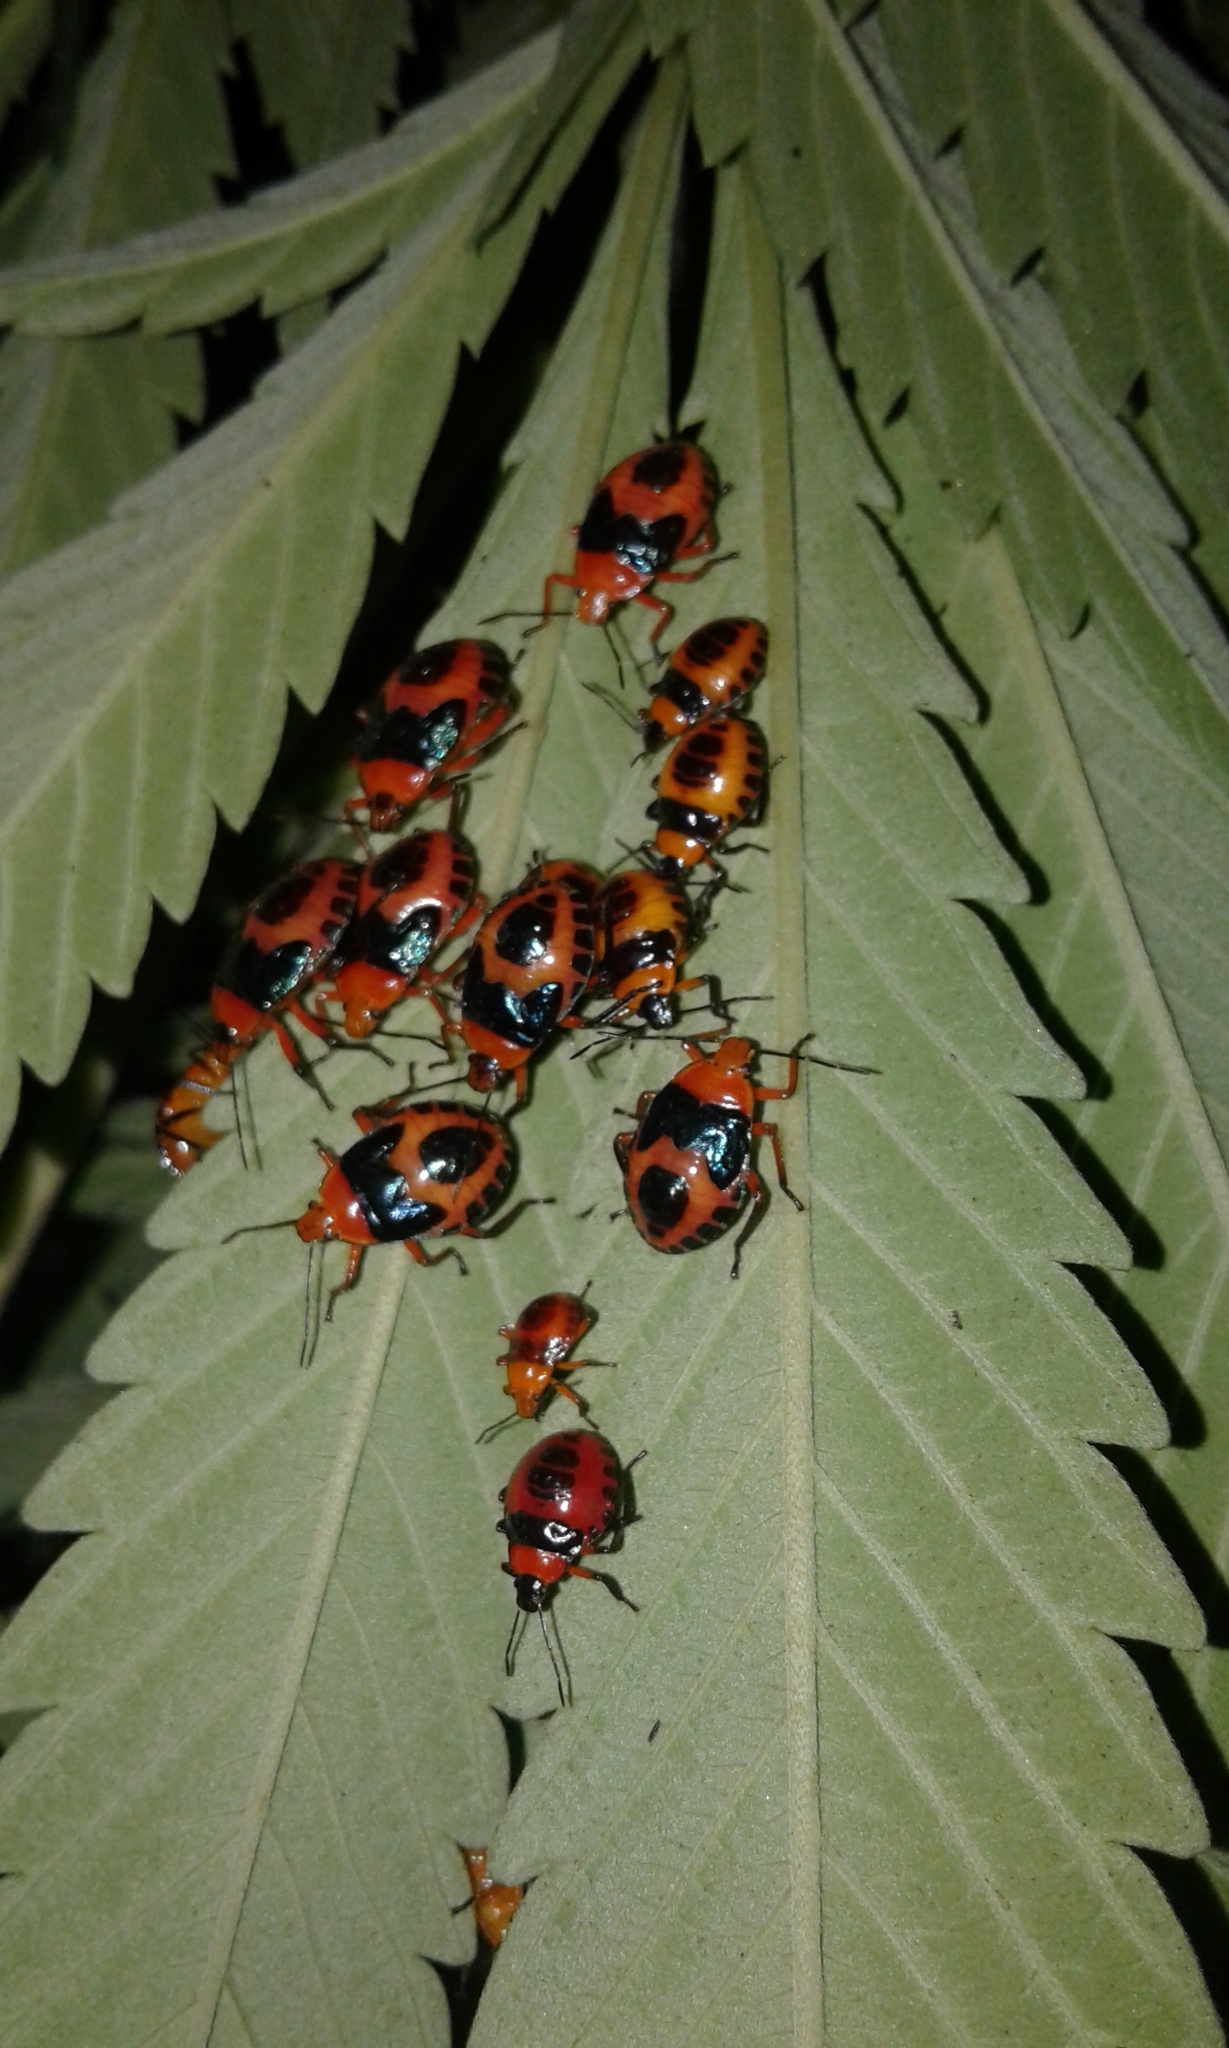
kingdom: Animalia
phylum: Arthropoda
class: Insecta
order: Hemiptera
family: Pentatomidae
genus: Tynacantha
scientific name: Tynacantha marginata
